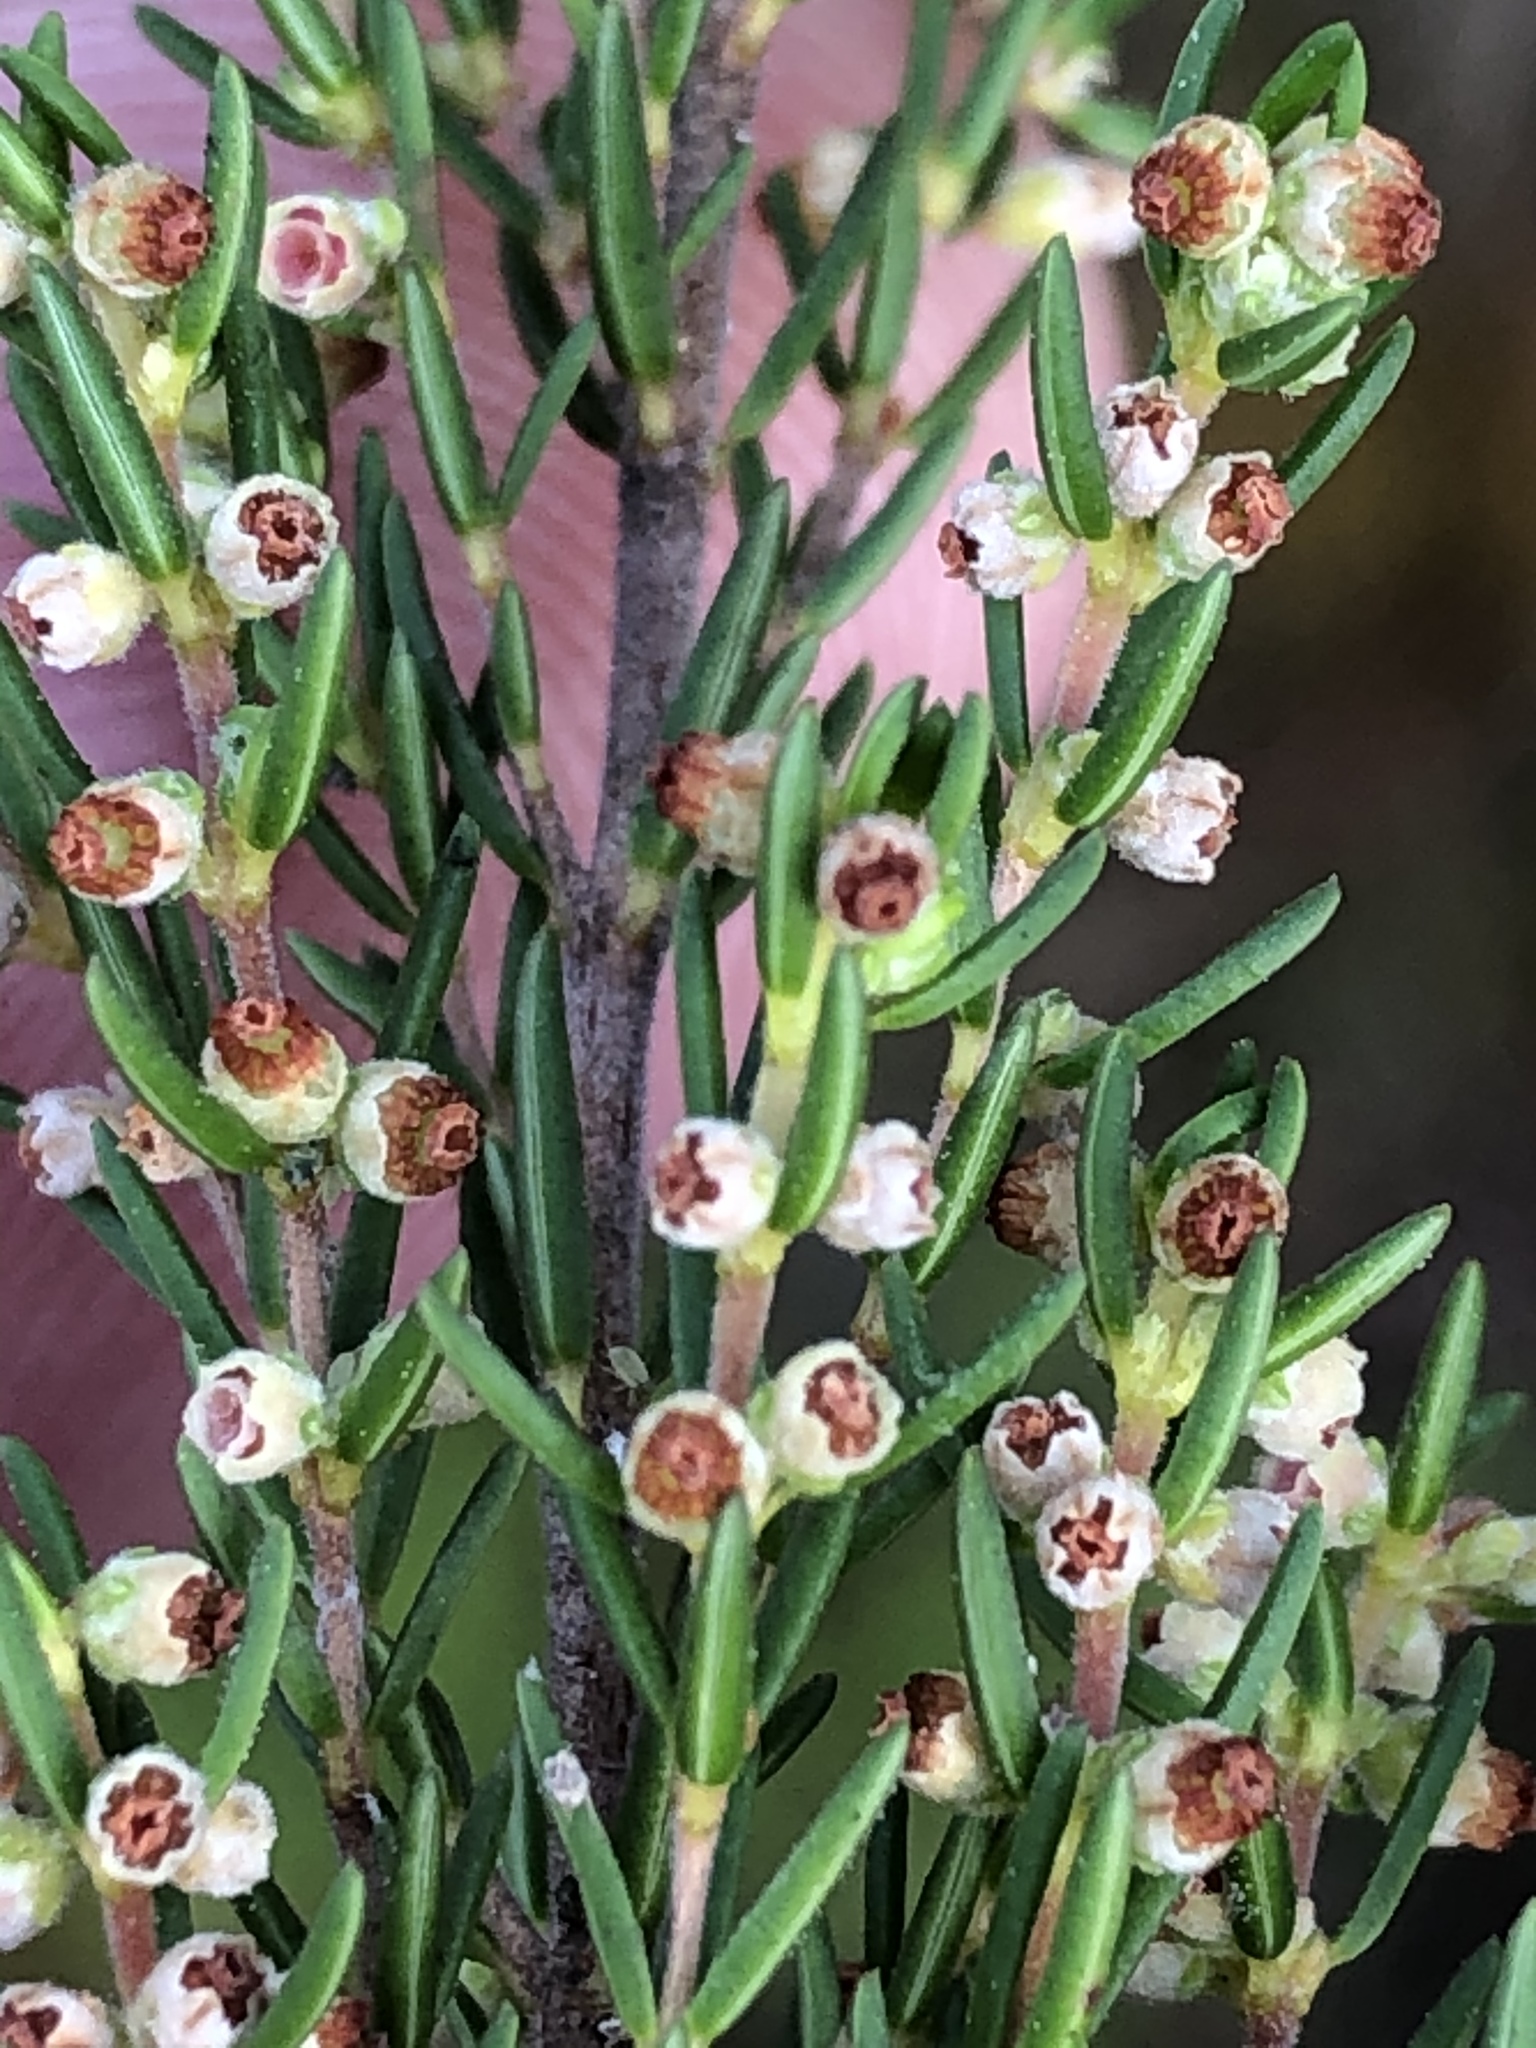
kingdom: Plantae
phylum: Tracheophyta
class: Magnoliopsida
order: Ericales
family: Ericaceae
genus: Erica
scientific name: Erica leucopelta
